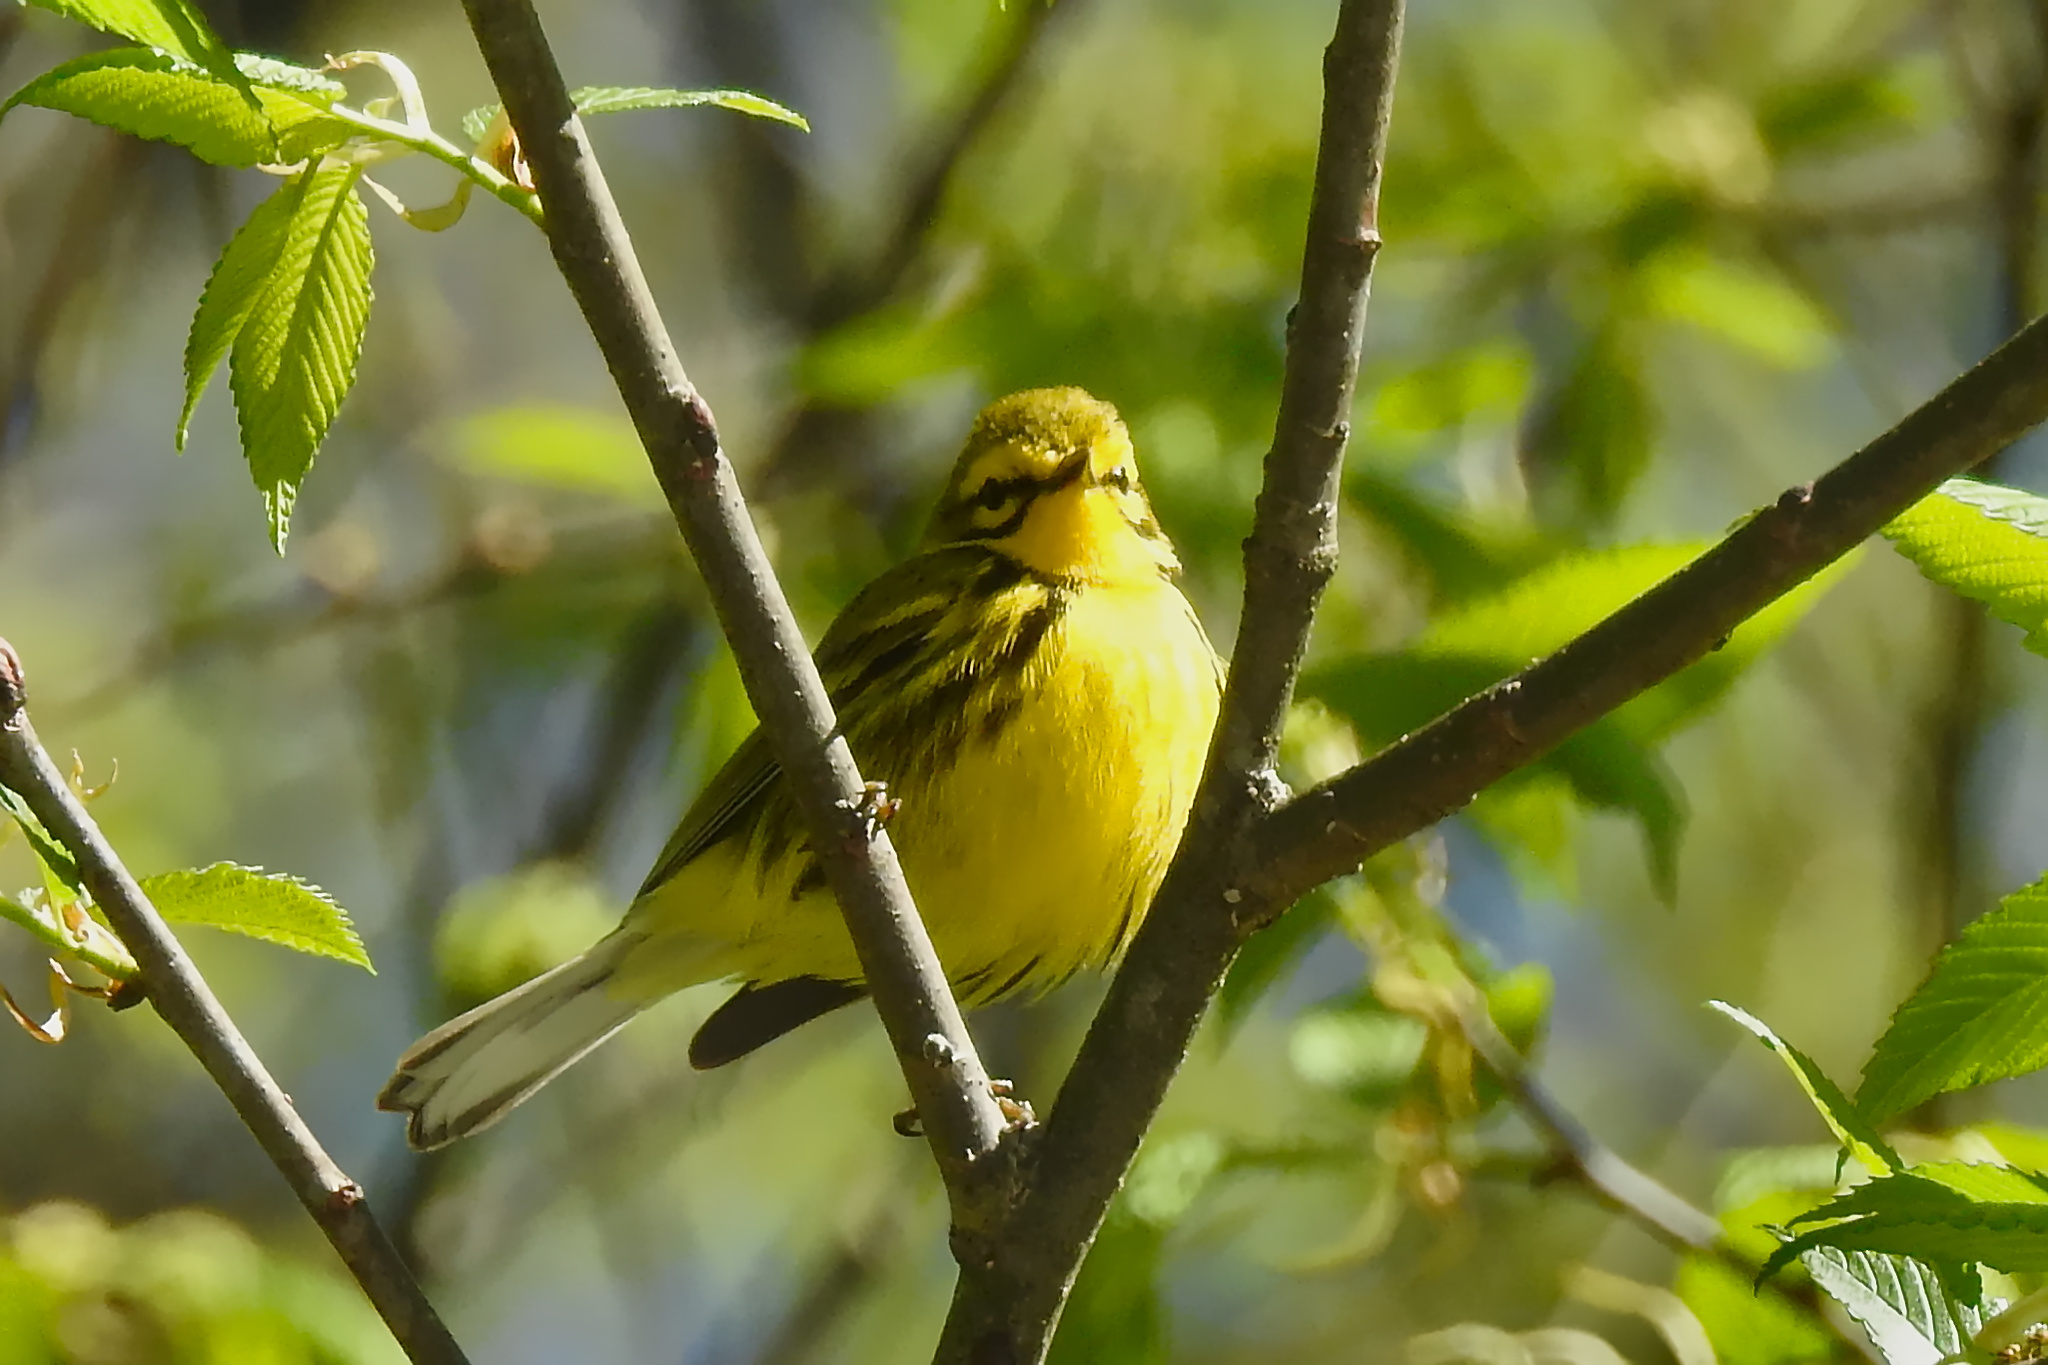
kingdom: Animalia
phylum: Chordata
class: Aves
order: Passeriformes
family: Parulidae
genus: Setophaga
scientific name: Setophaga discolor
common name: Prairie warbler
